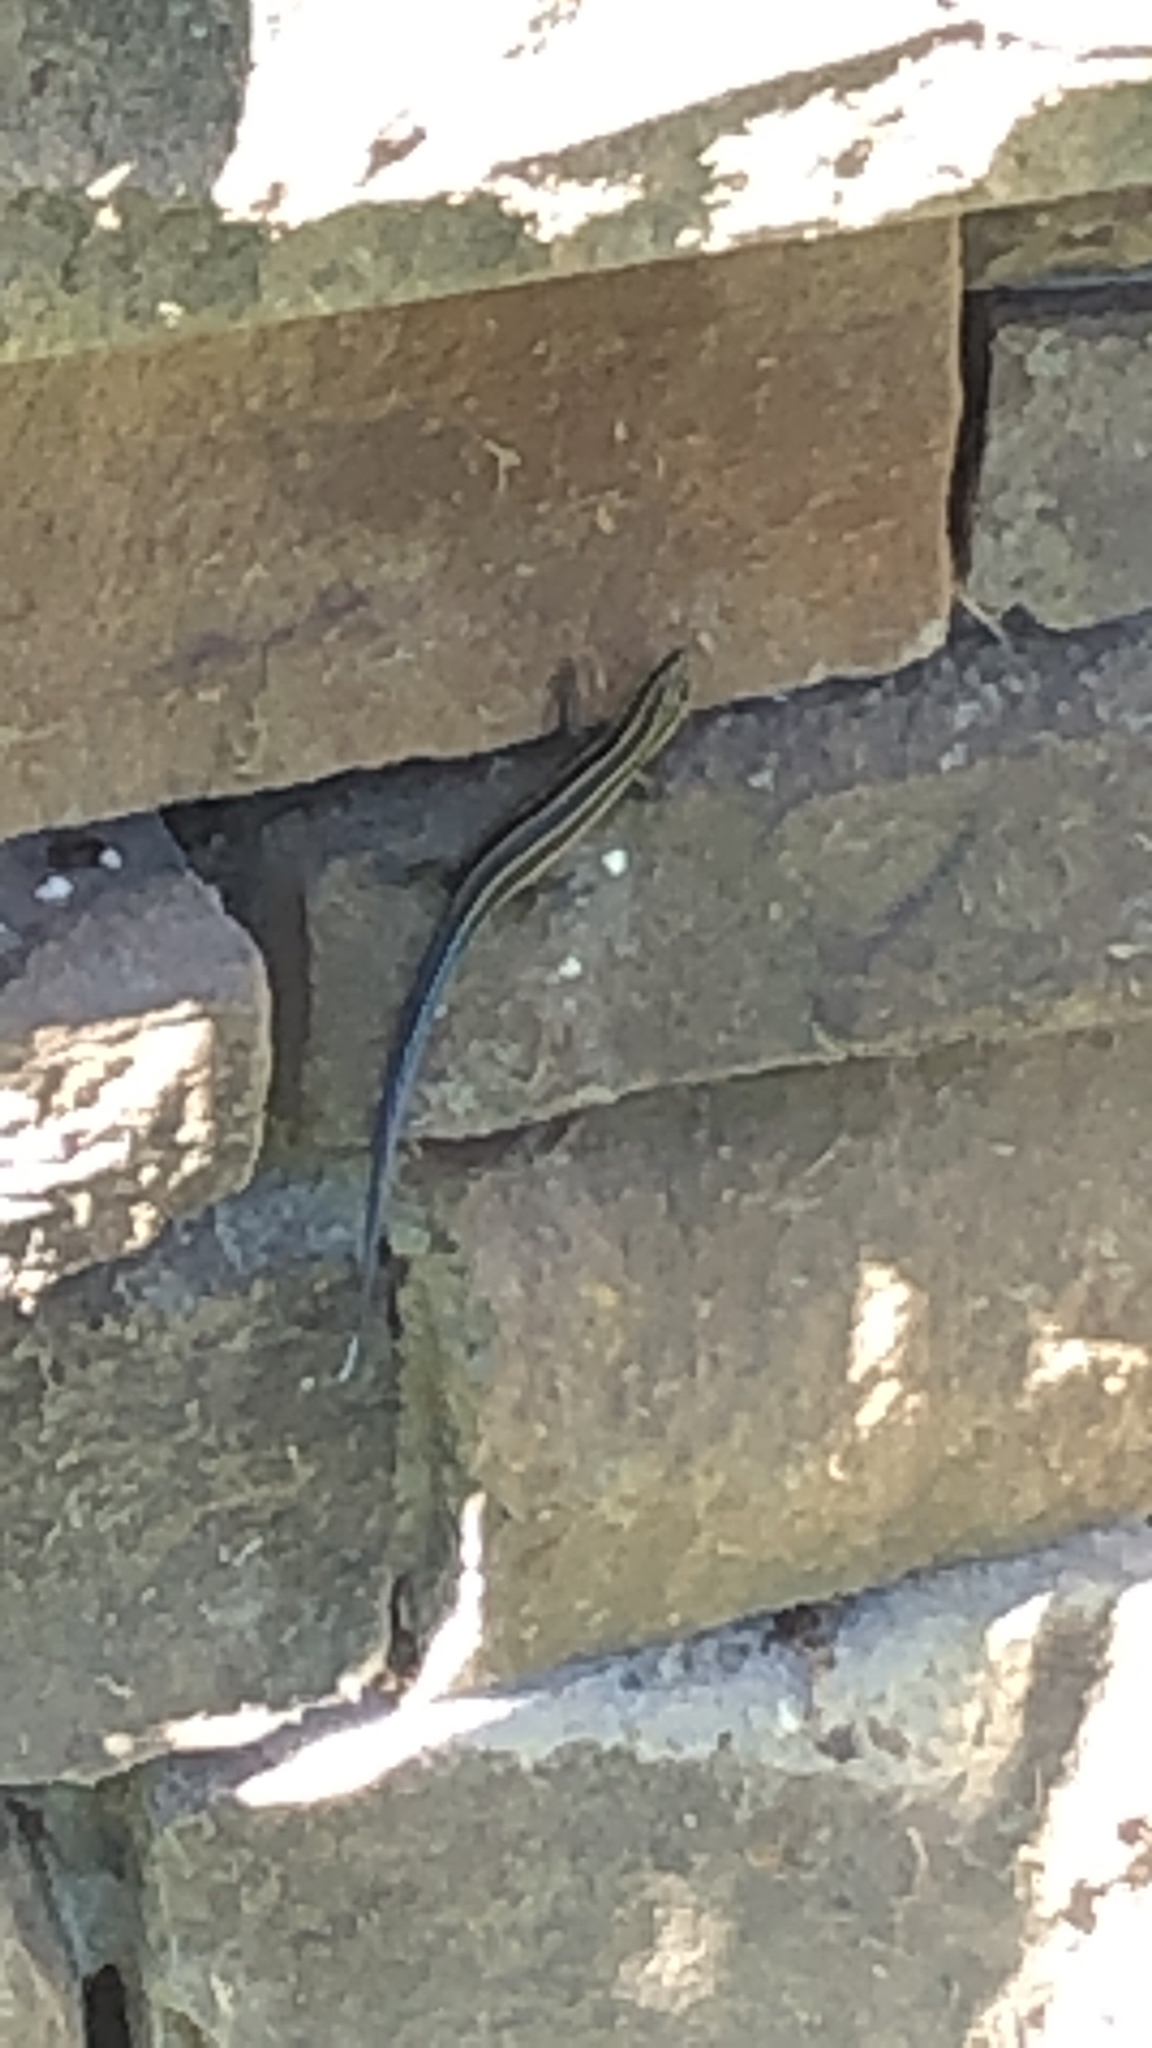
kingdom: Animalia
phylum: Chordata
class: Squamata
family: Scincidae
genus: Plestiodon
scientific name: Plestiodon fasciatus
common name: Five-lined skink
